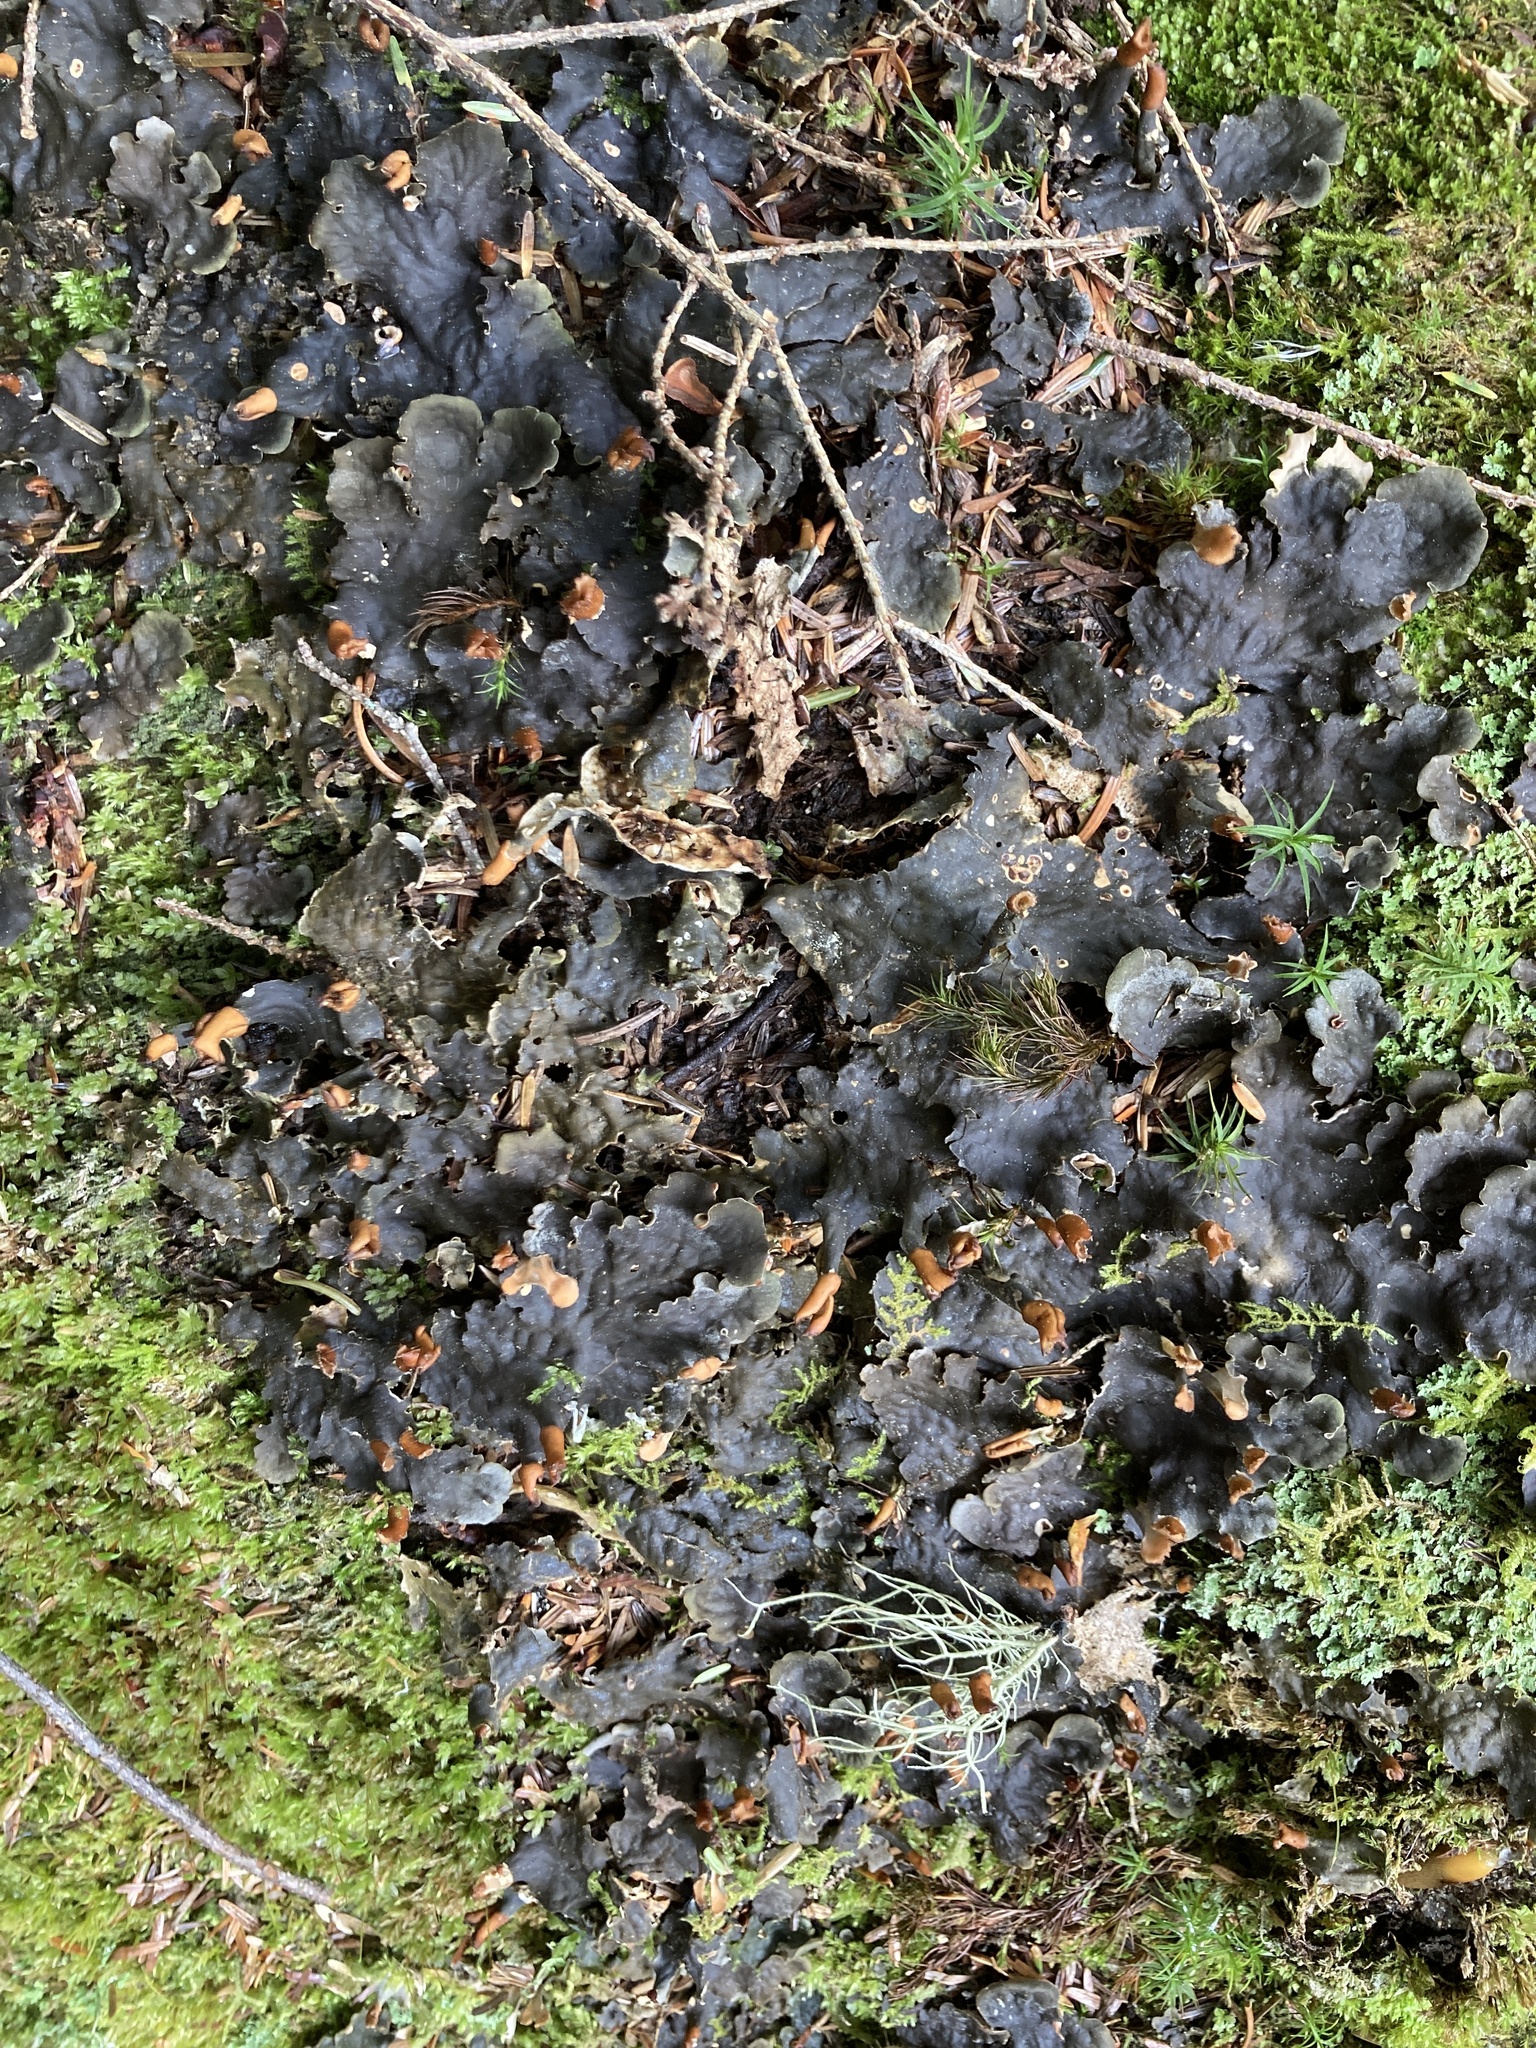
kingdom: Fungi
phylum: Ascomycota
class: Lecanoromycetes
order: Peltigerales
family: Peltigeraceae
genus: Peltigera
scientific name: Peltigera polydactylon
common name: Many-fruited pelt lichen
